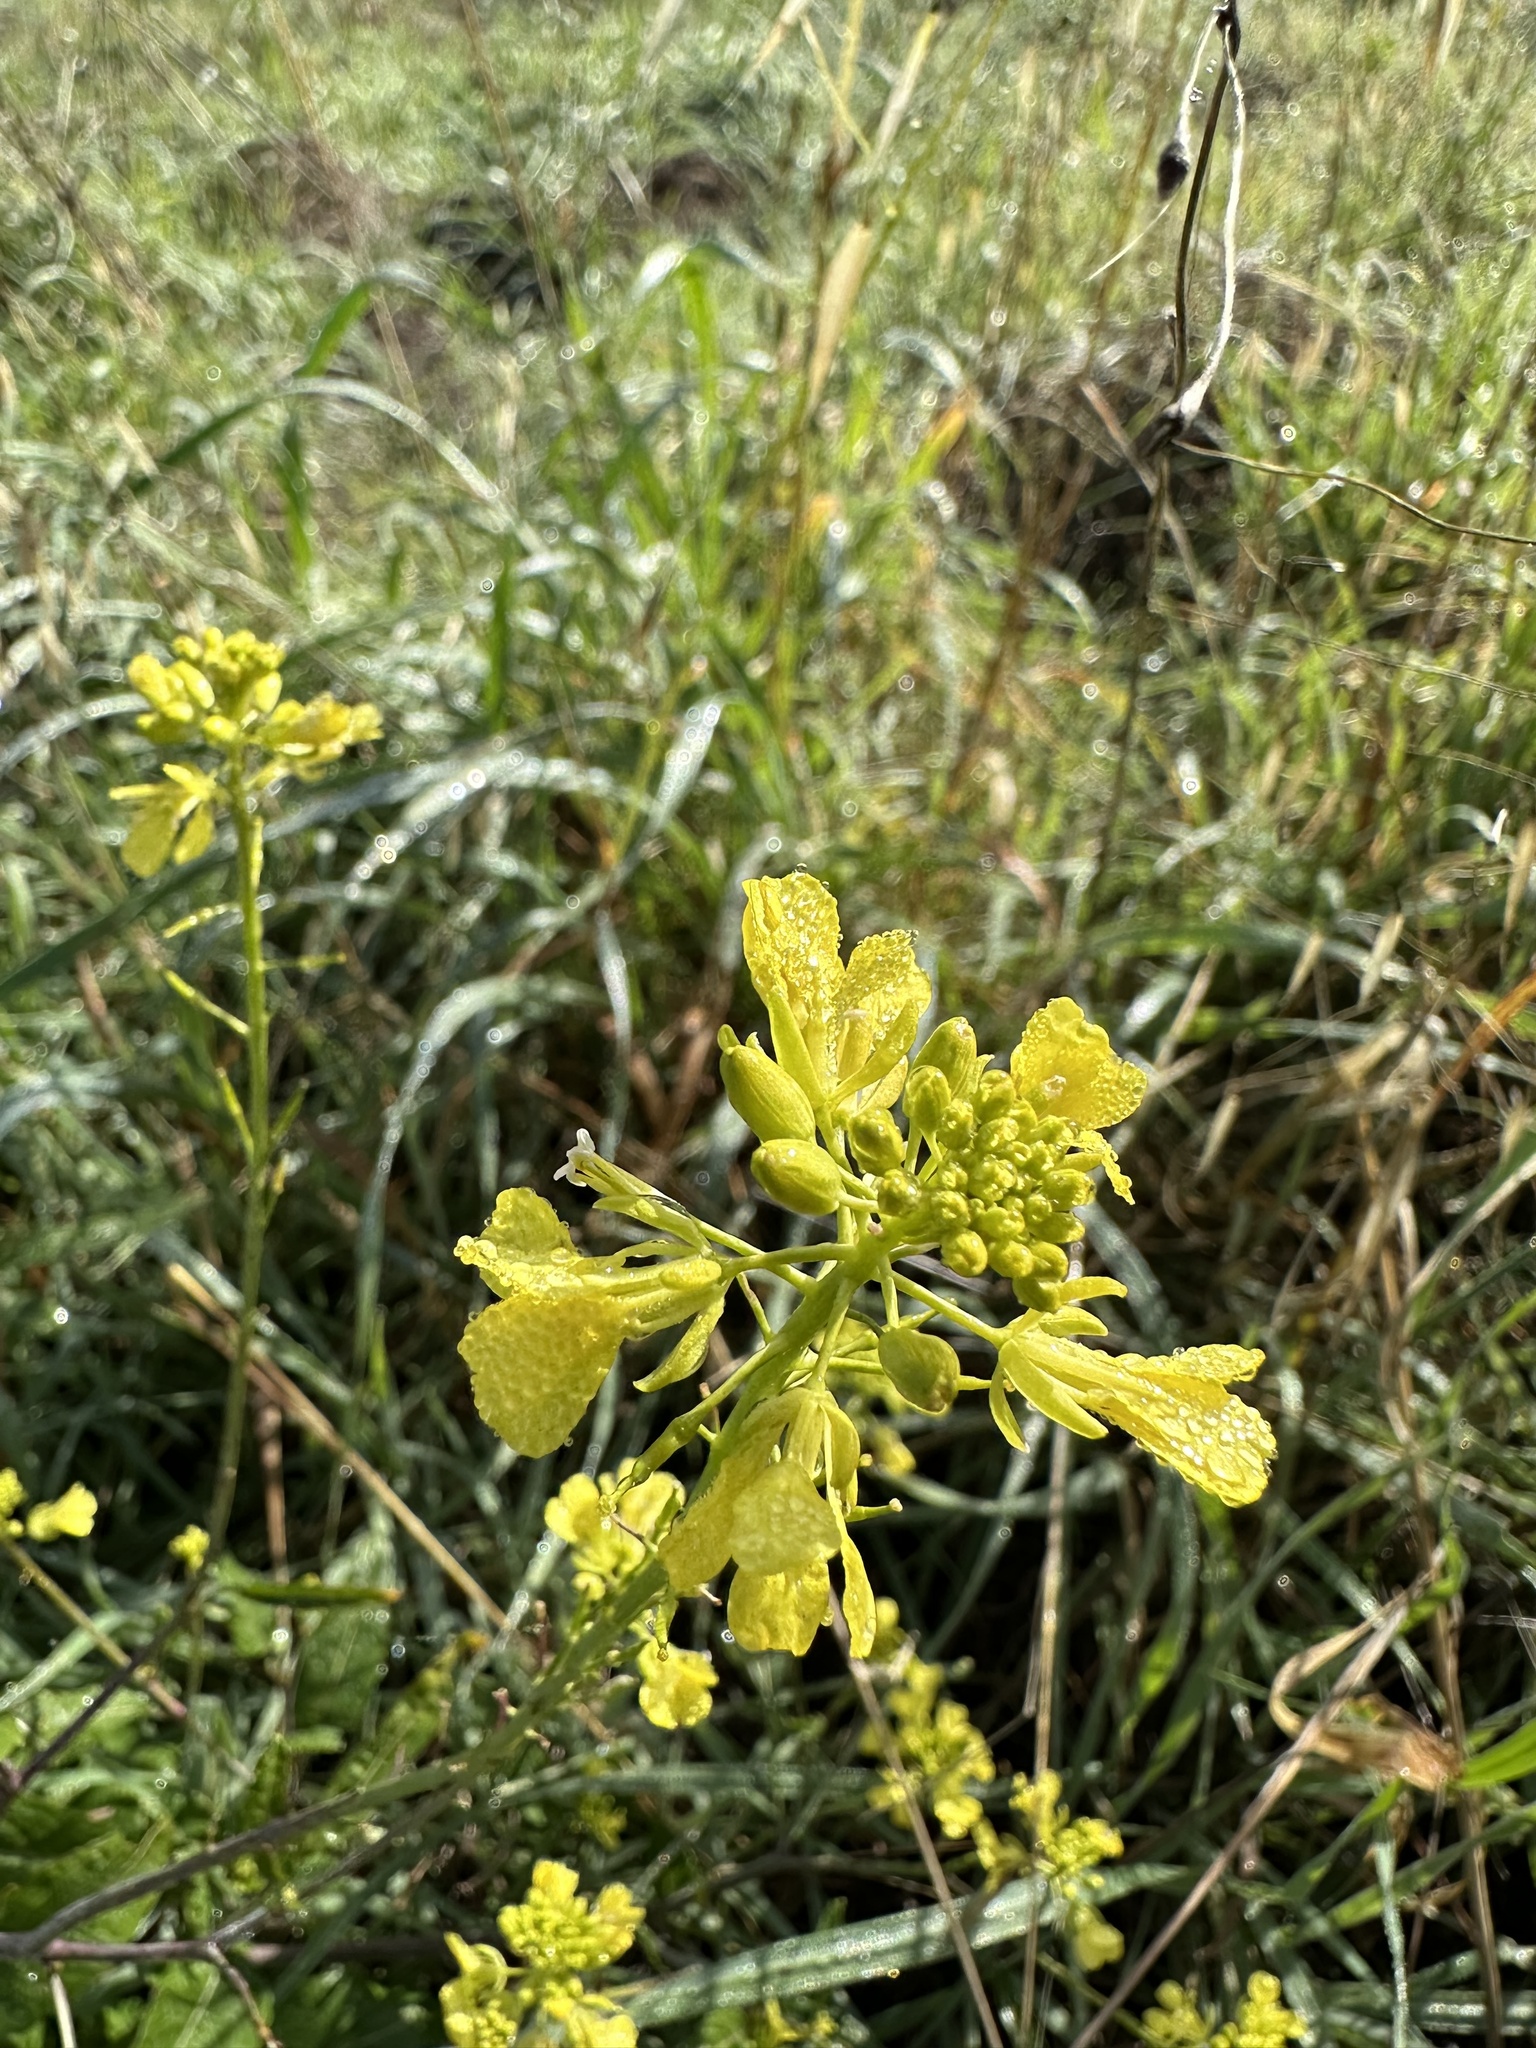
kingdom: Plantae
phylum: Tracheophyta
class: Magnoliopsida
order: Brassicales
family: Brassicaceae
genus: Brassica
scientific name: Brassica nigra
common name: Black mustard
